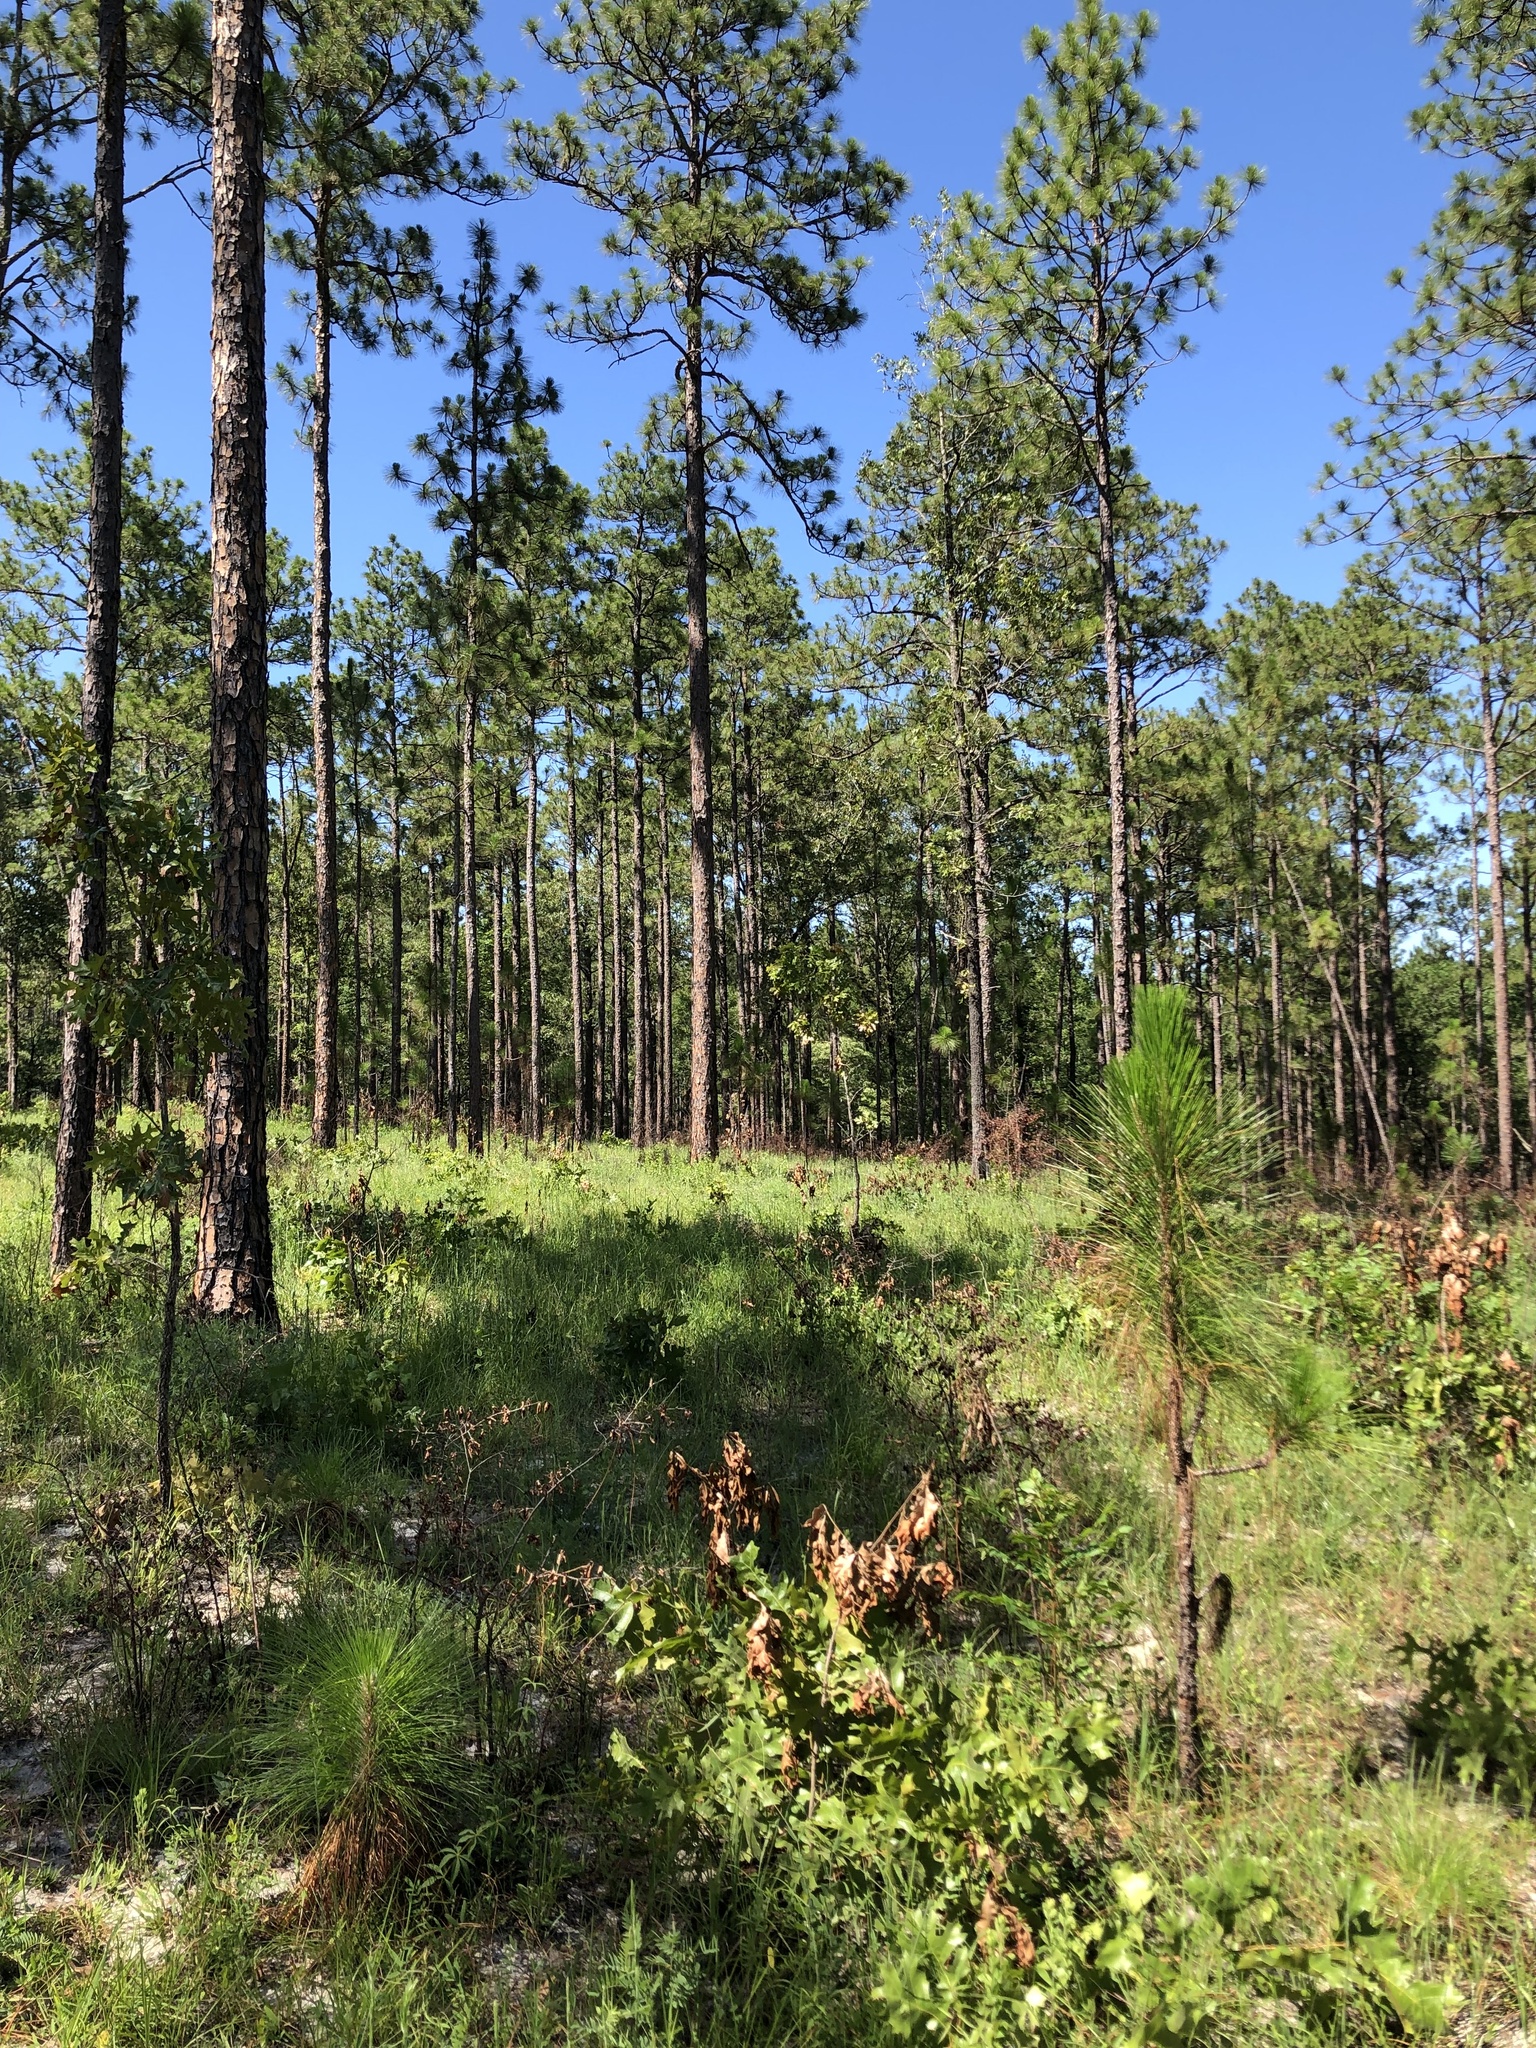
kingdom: Plantae
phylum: Tracheophyta
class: Magnoliopsida
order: Asterales
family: Asteraceae
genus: Coreopsis
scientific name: Coreopsis major
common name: Forest tickseed
